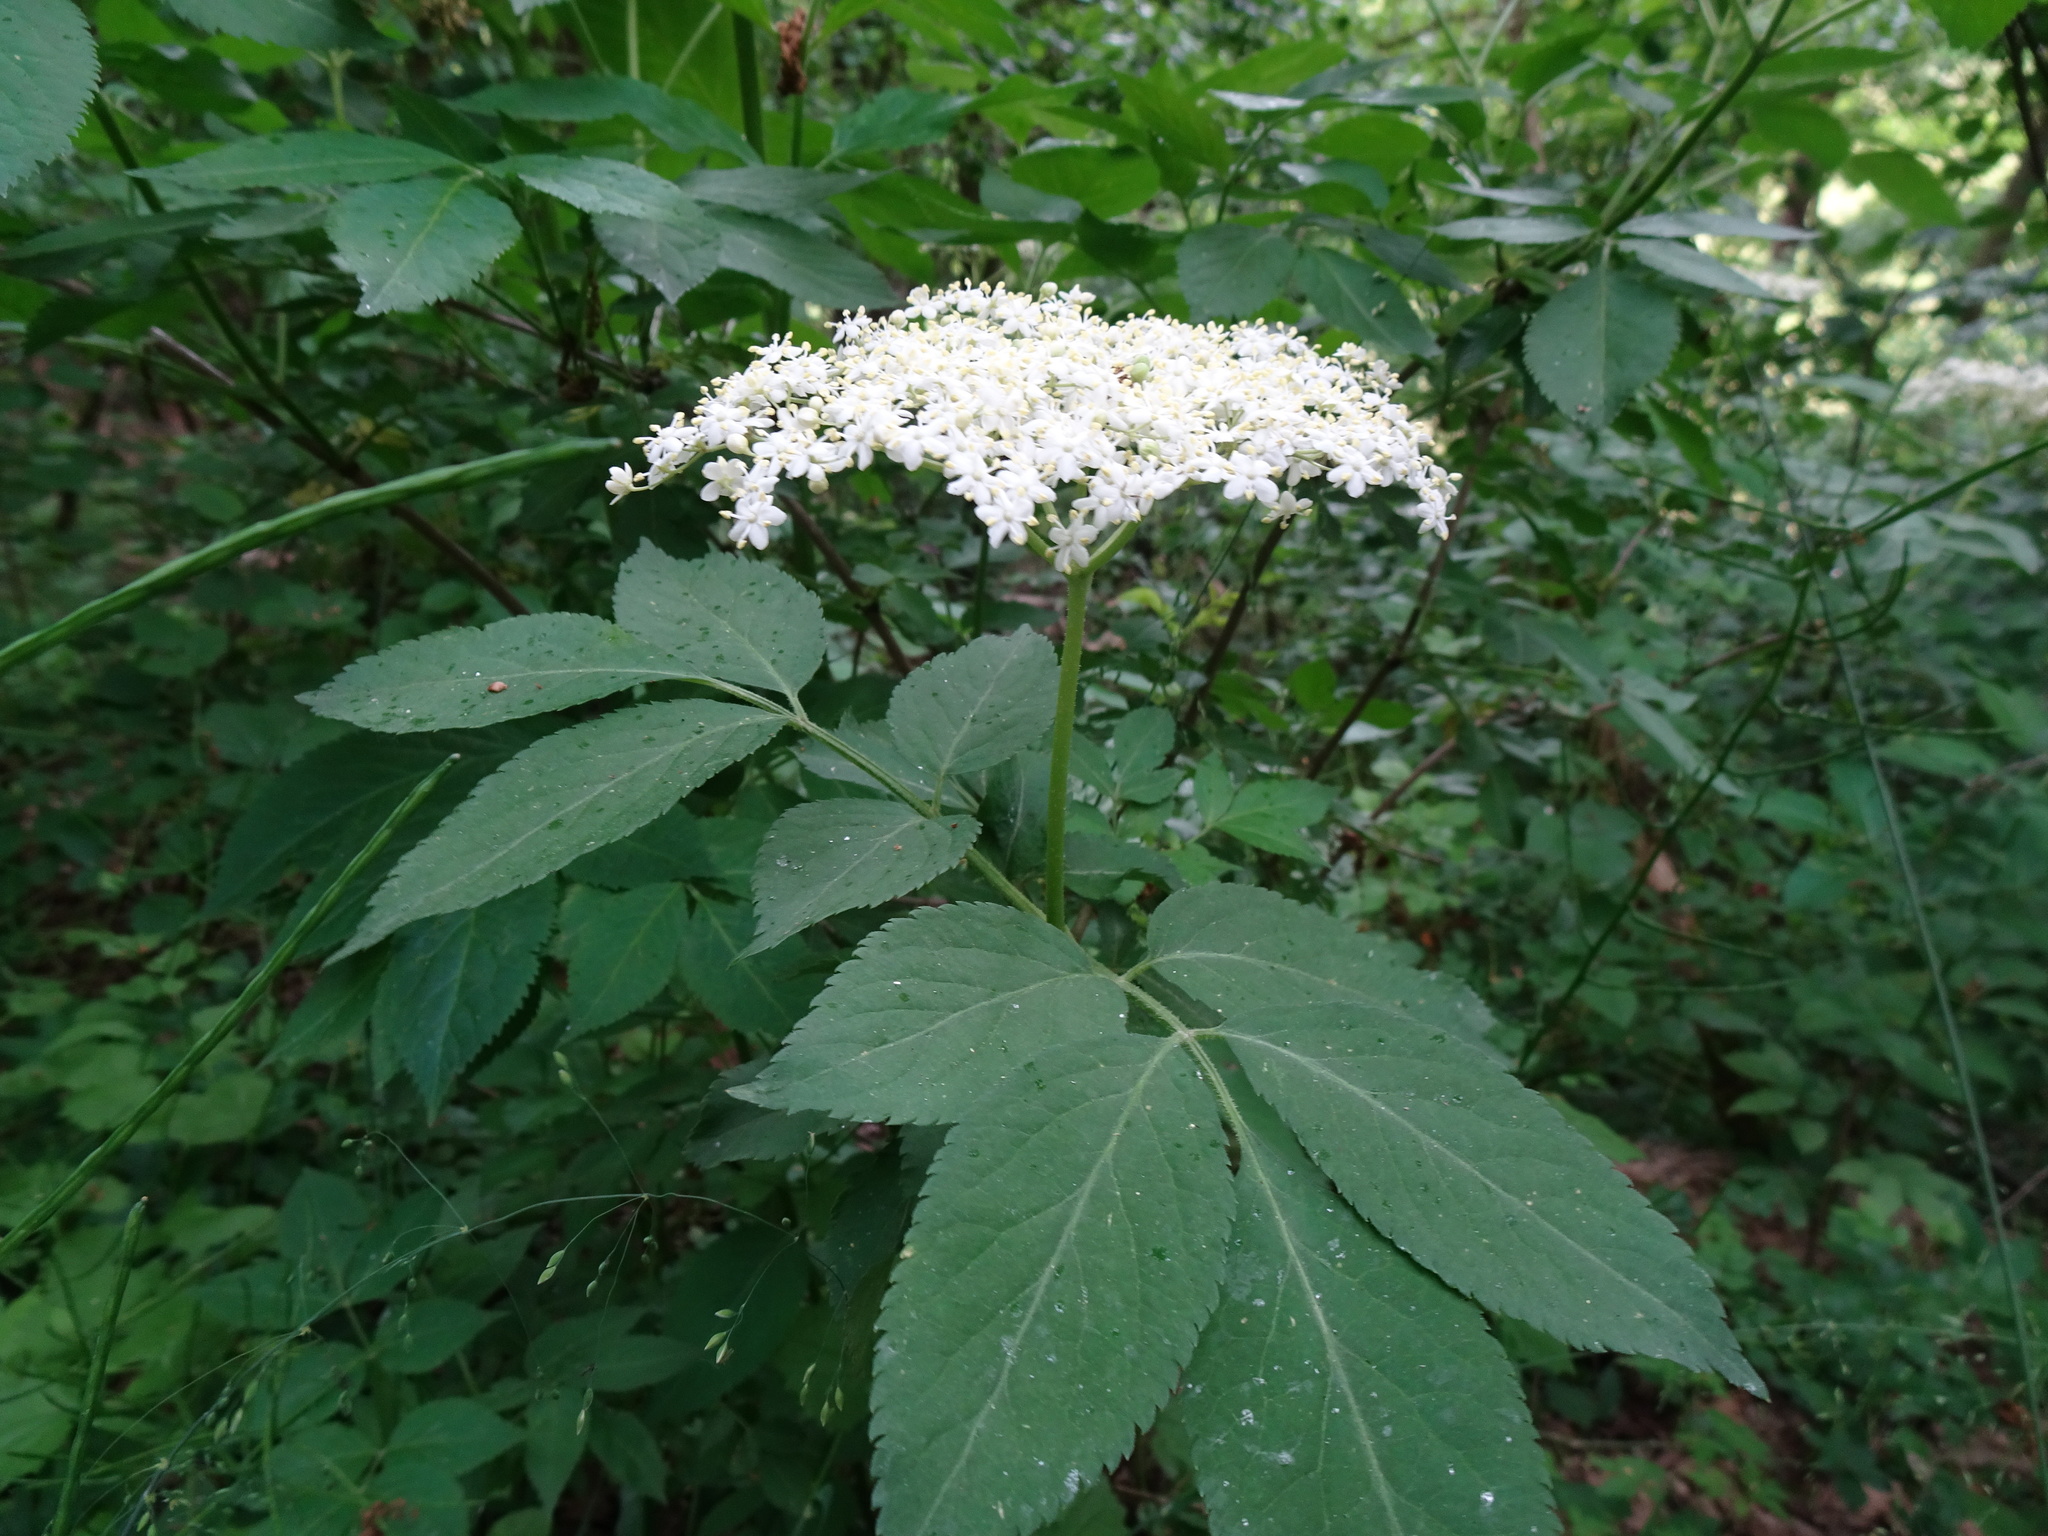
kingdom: Plantae
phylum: Tracheophyta
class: Magnoliopsida
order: Dipsacales
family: Viburnaceae
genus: Sambucus
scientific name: Sambucus nigra
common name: Elder
